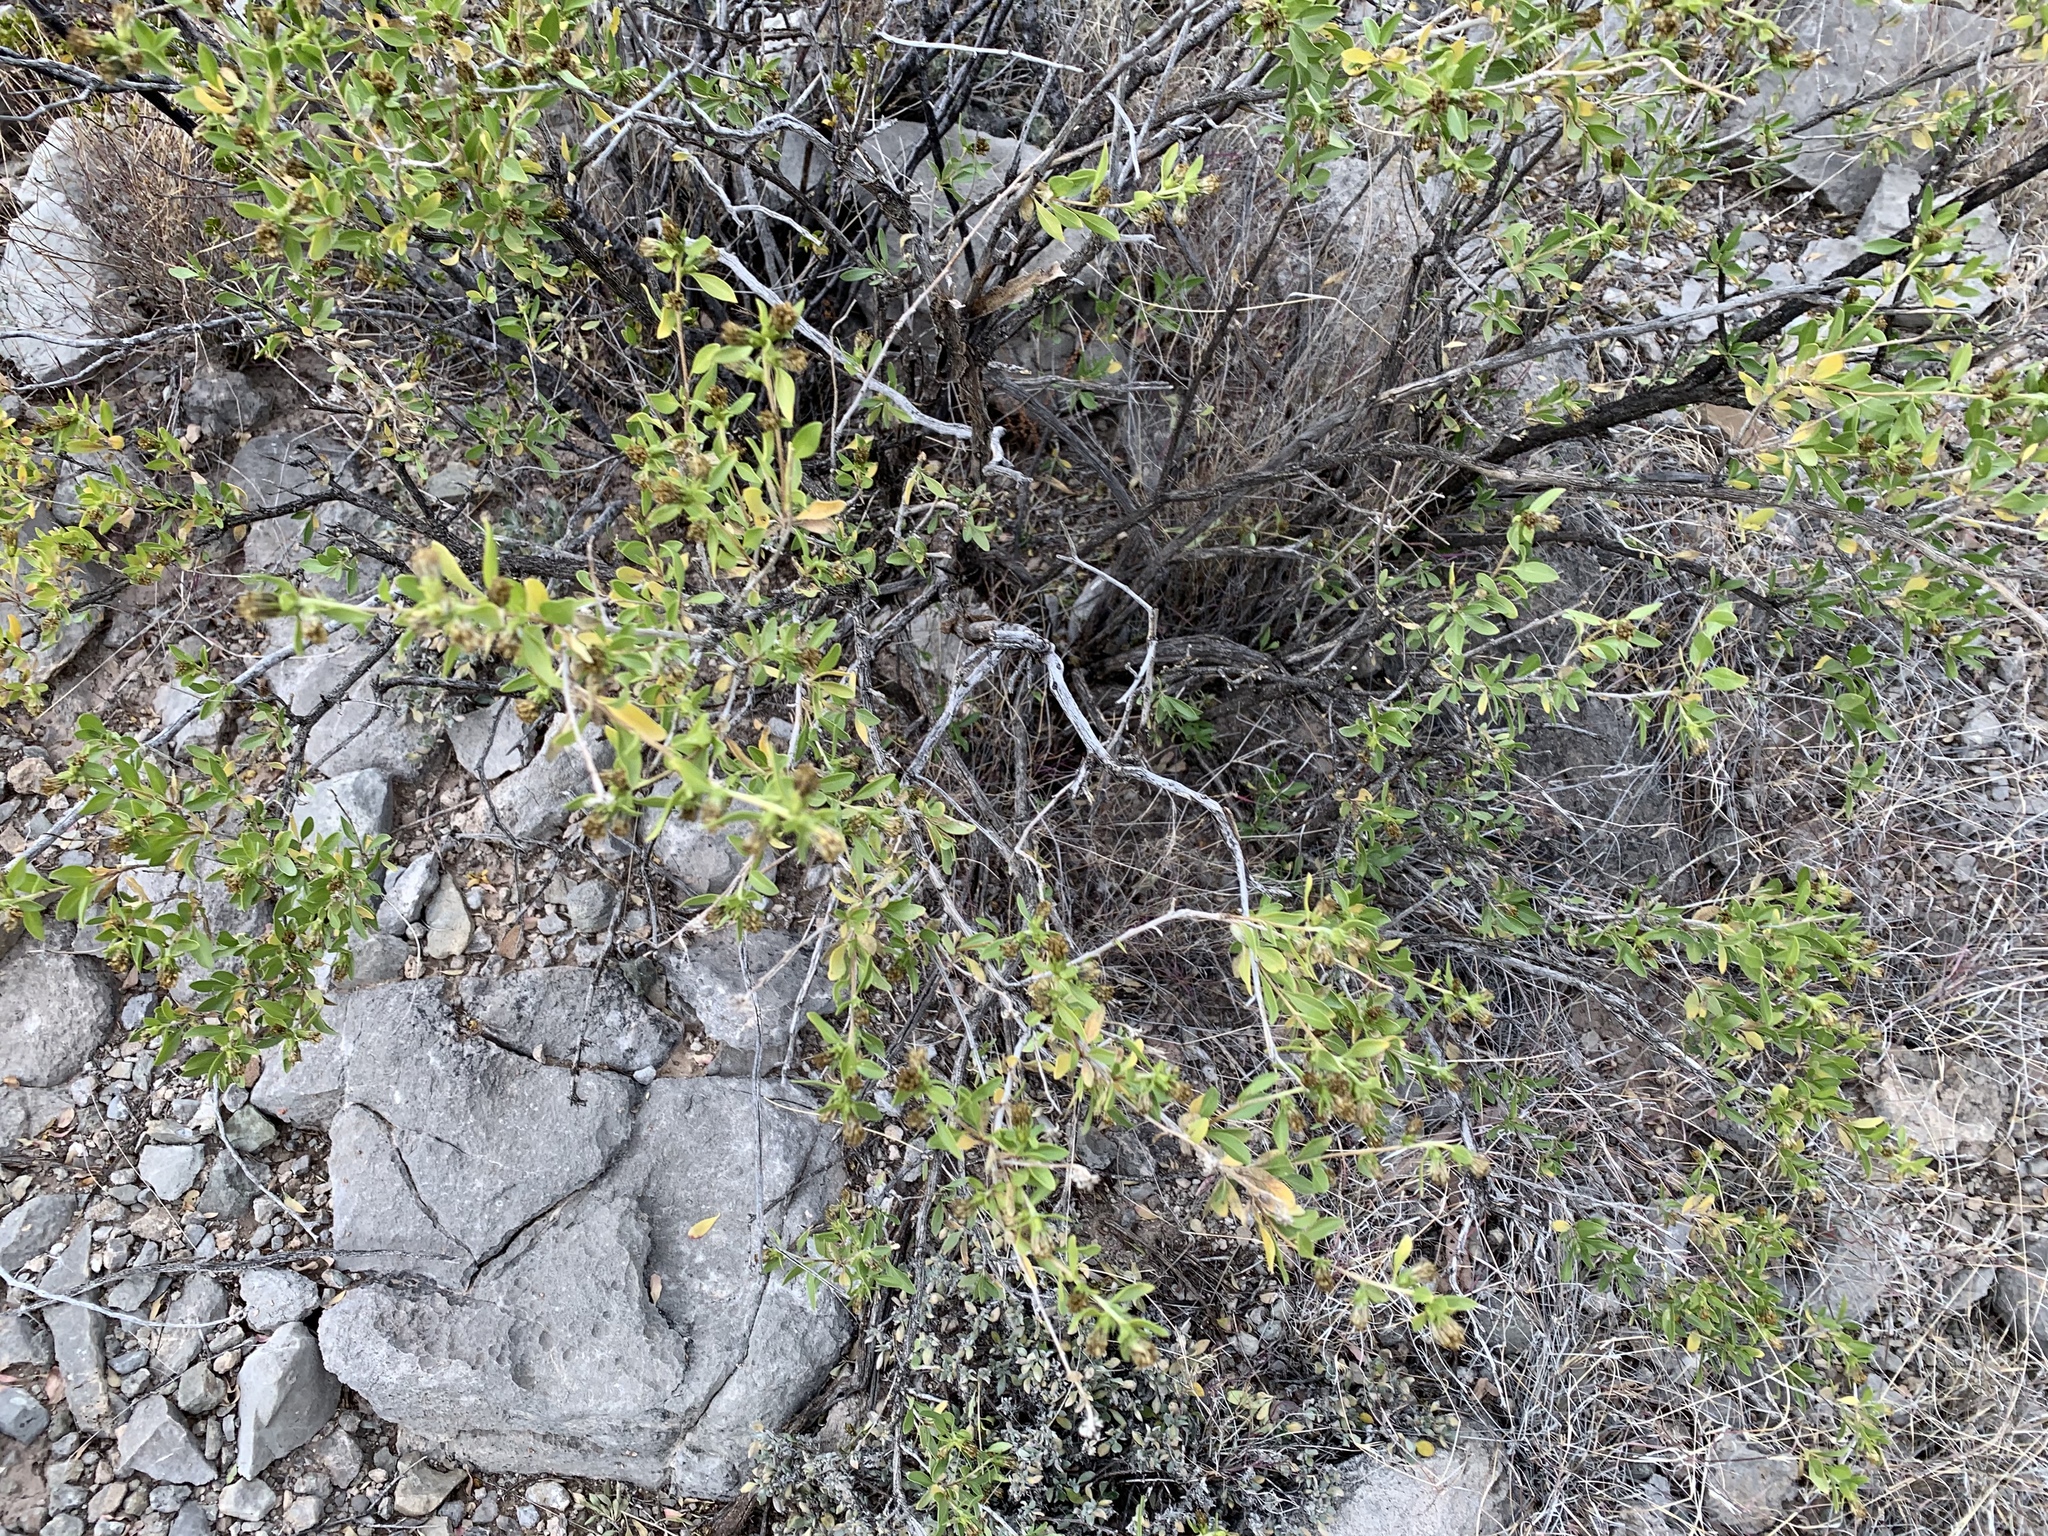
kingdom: Plantae
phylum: Tracheophyta
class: Magnoliopsida
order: Asterales
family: Asteraceae
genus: Flourensia
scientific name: Flourensia cernua
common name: Varnishbush
